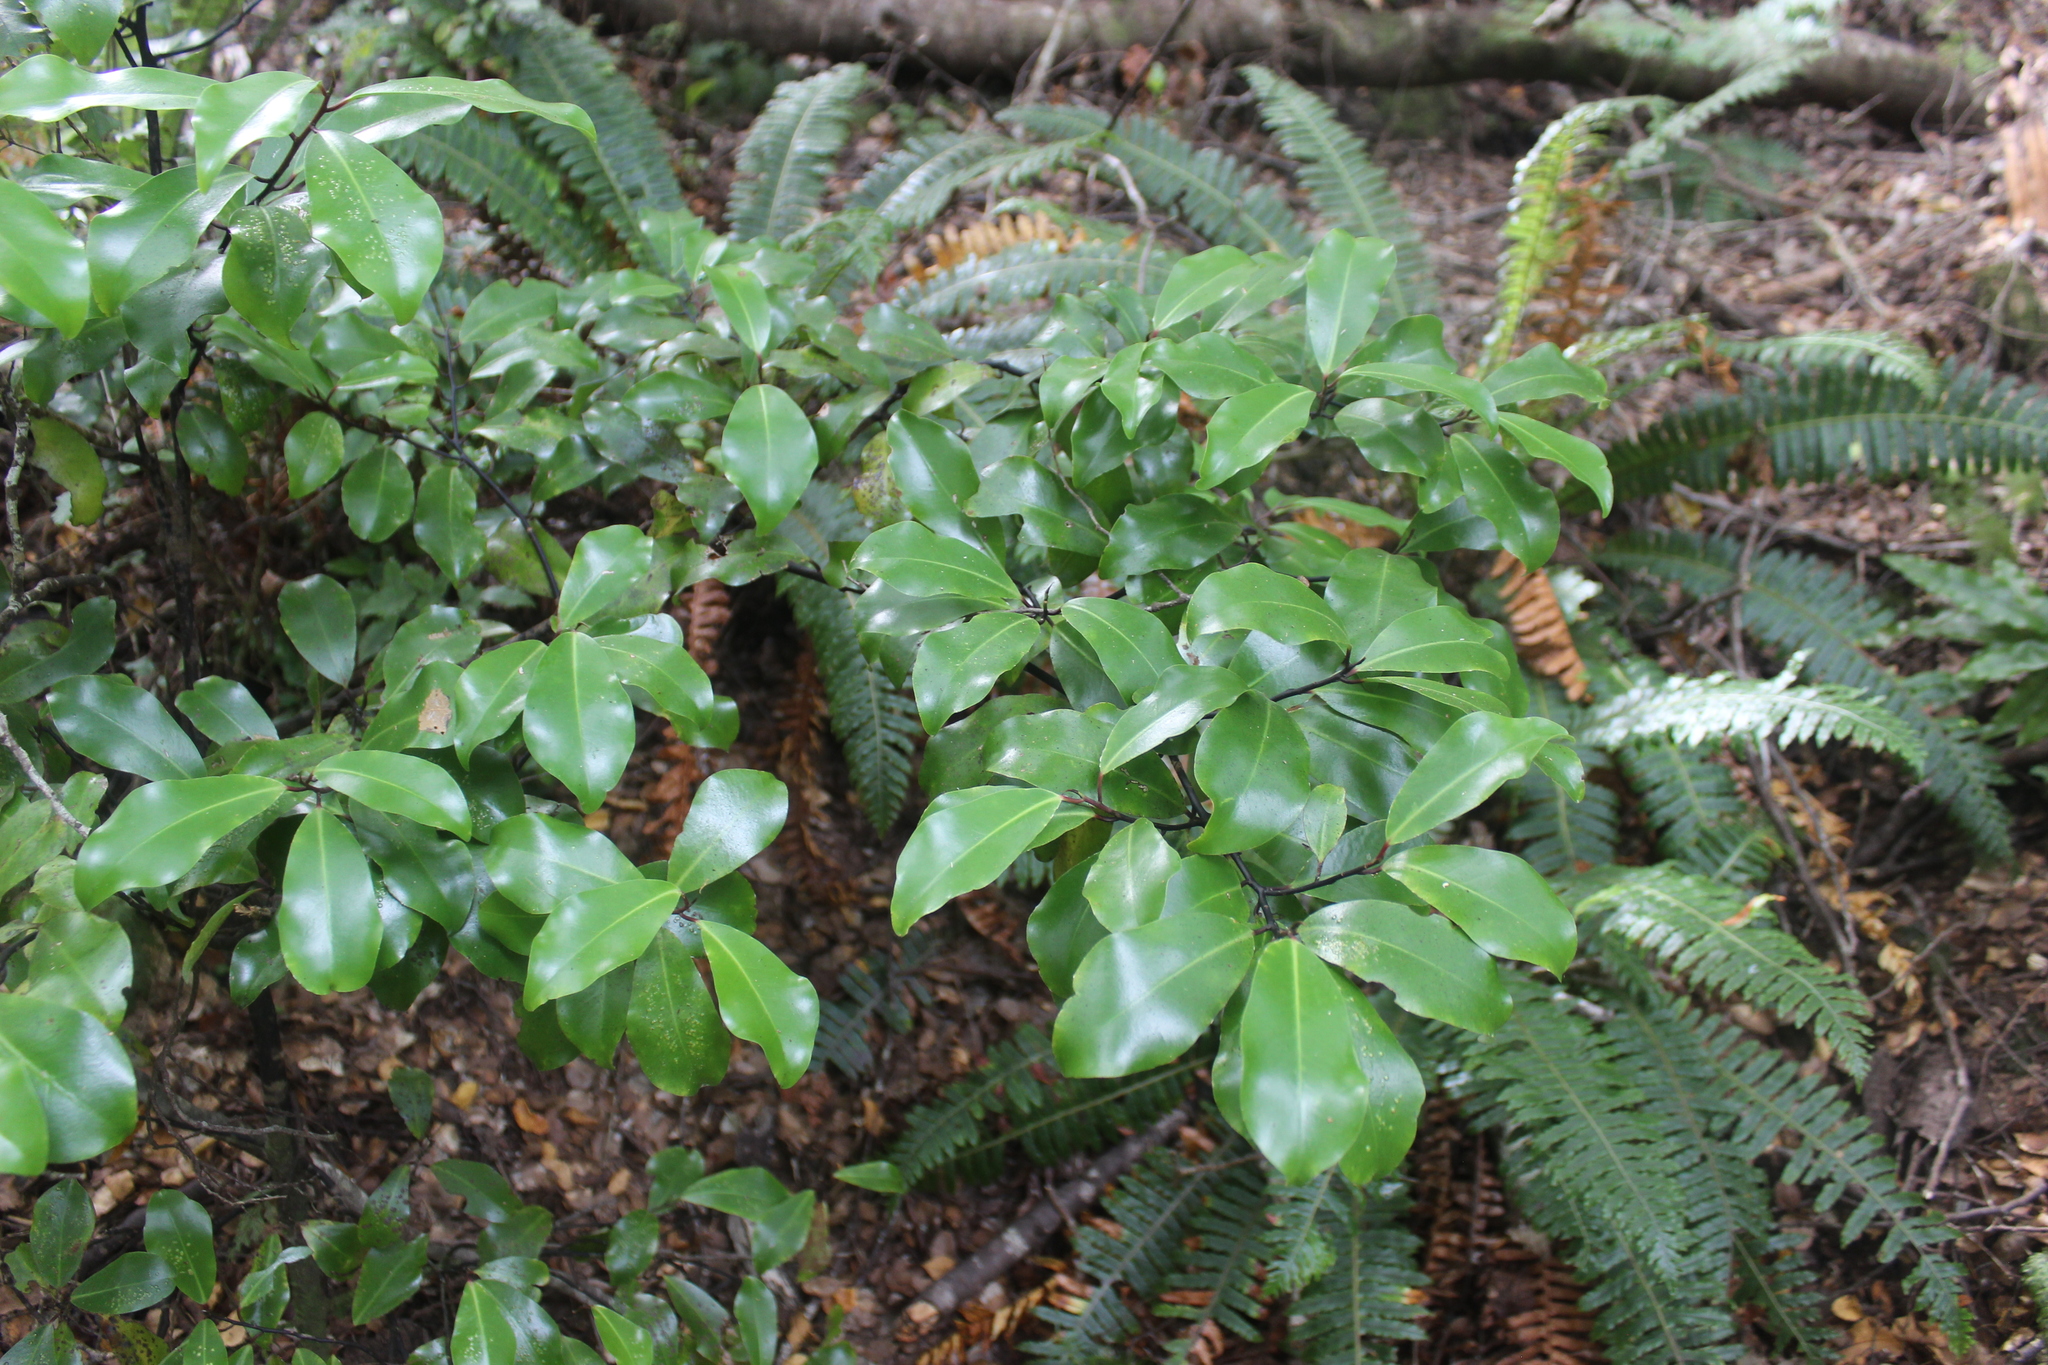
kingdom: Plantae
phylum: Tracheophyta
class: Magnoliopsida
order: Canellales
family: Winteraceae
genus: Pseudowintera
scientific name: Pseudowintera axillaris
